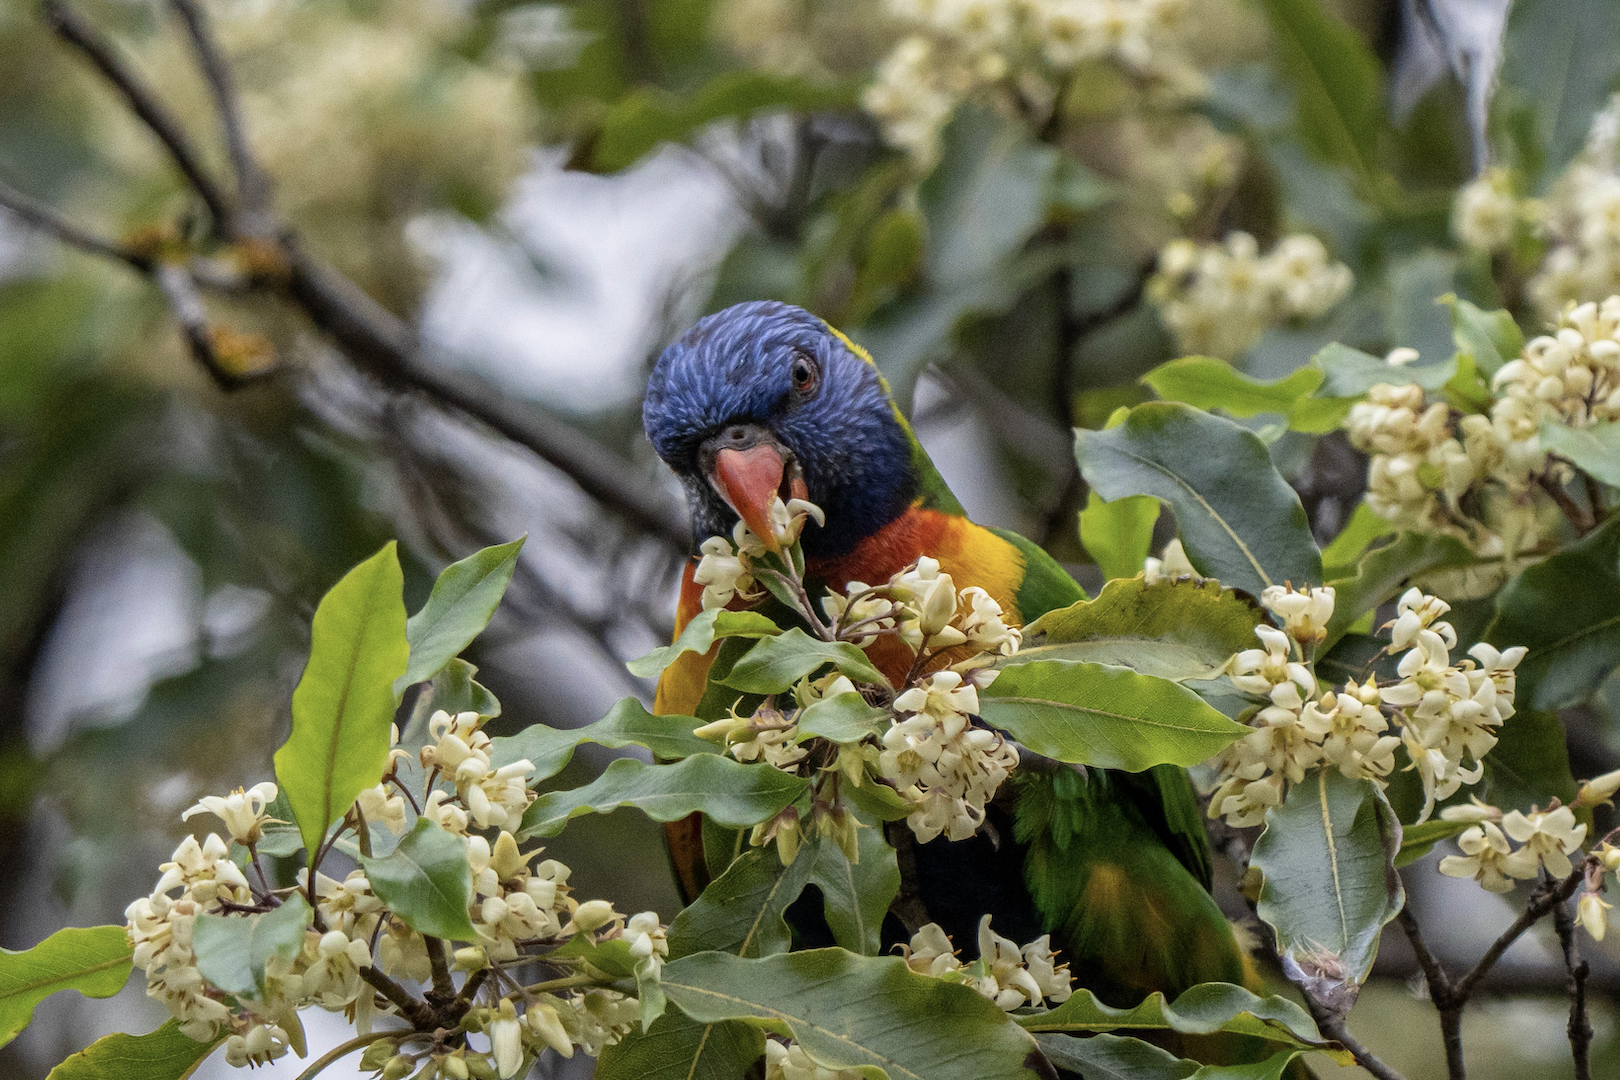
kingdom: Animalia
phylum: Chordata
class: Aves
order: Psittaciformes
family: Psittacidae
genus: Trichoglossus
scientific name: Trichoglossus haematodus
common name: Coconut lorikeet
